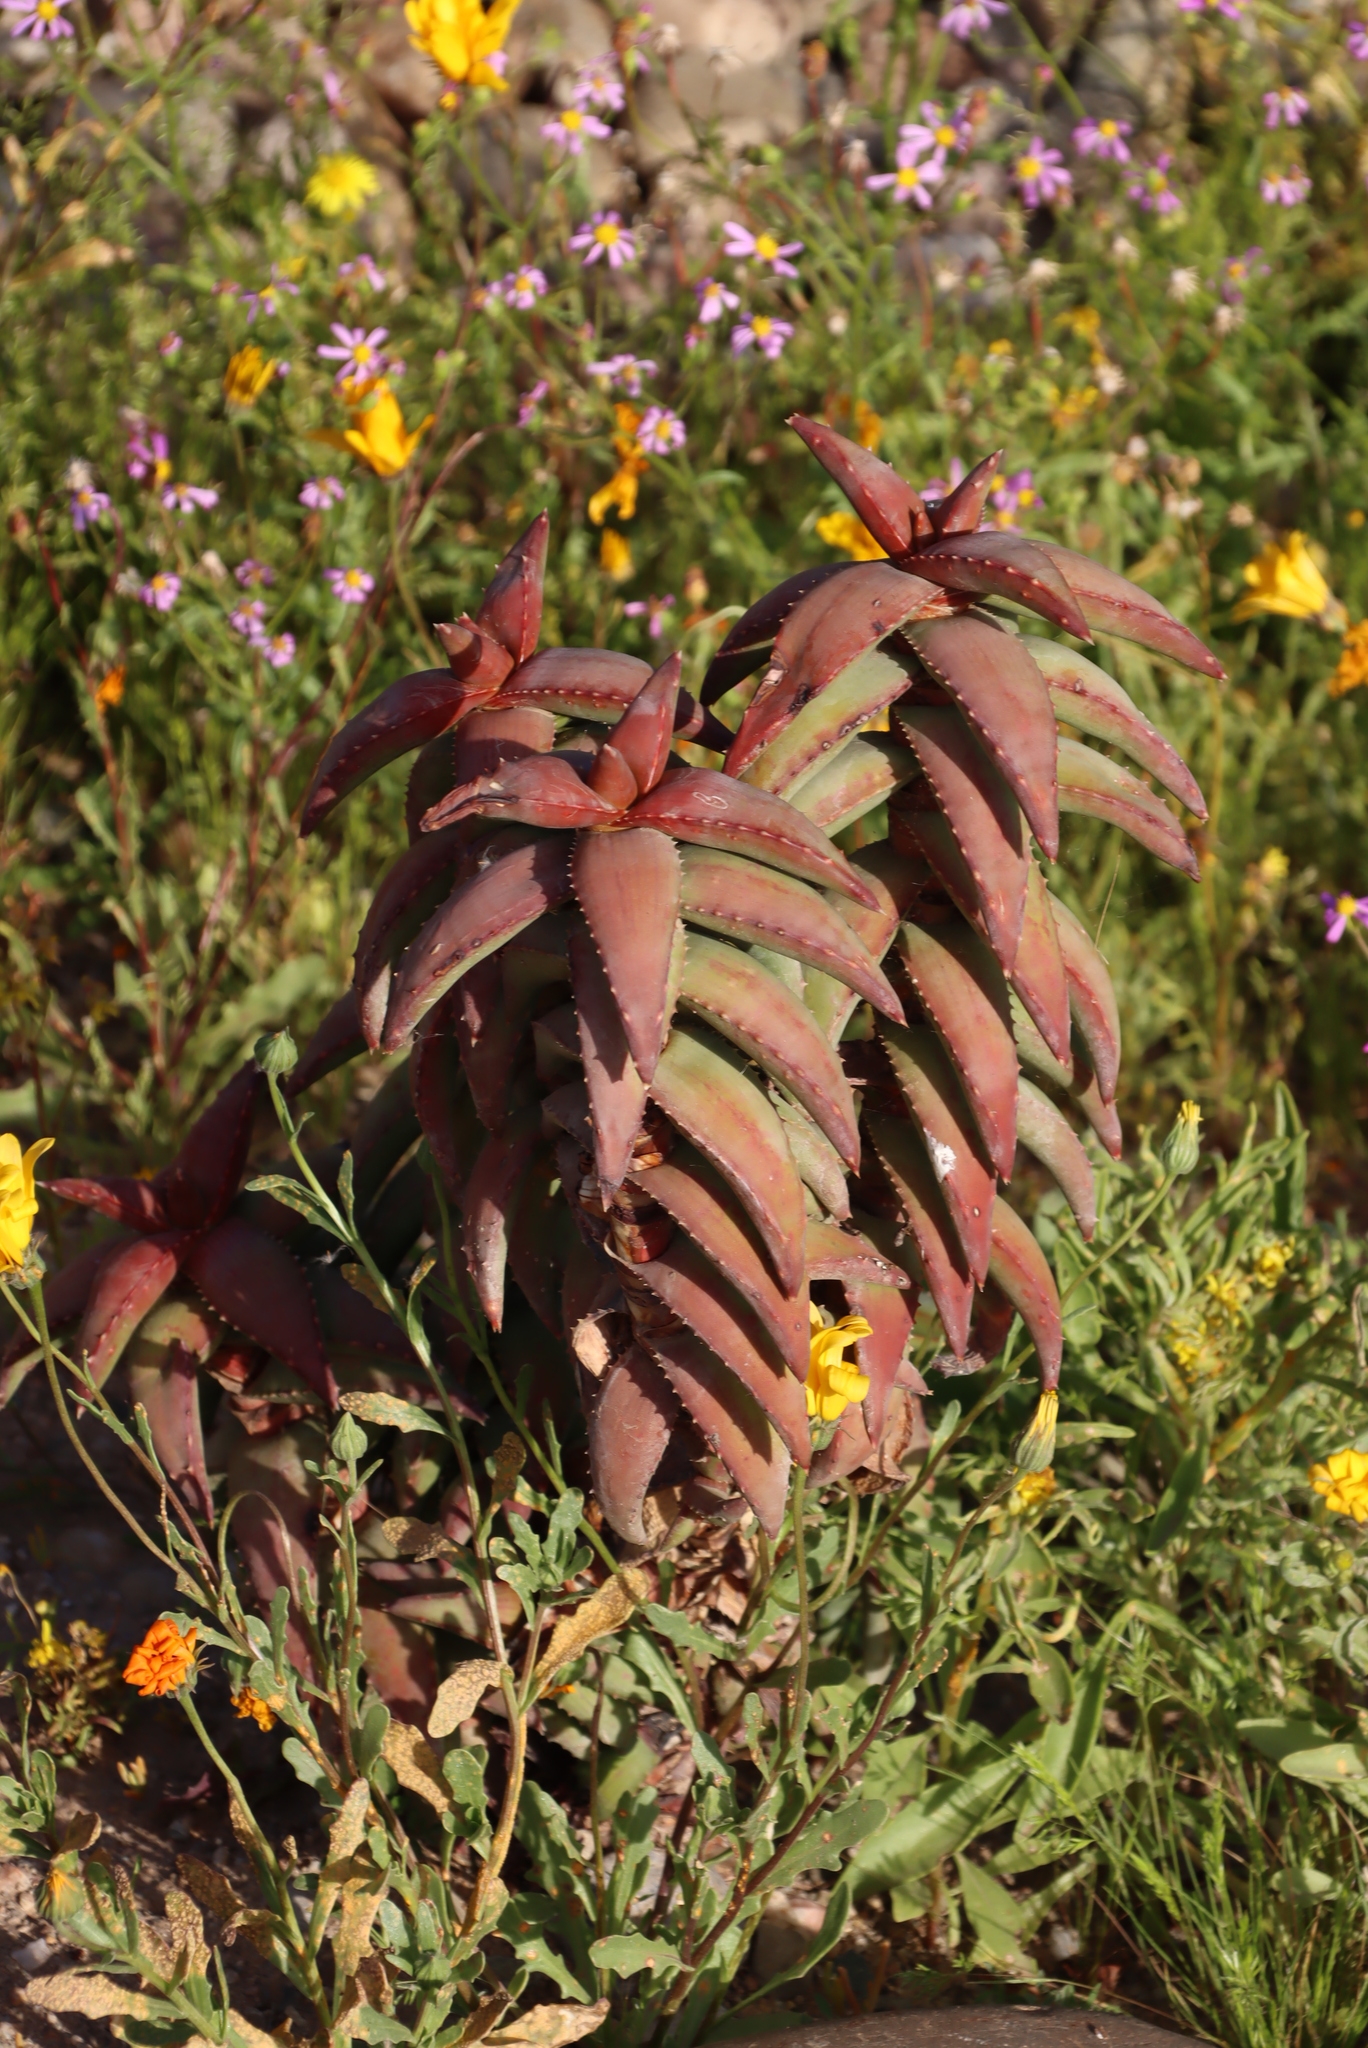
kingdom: Plantae
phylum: Tracheophyta
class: Liliopsida
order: Asparagales
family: Asphodelaceae
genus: Aloe
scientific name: Aloe pearsonii
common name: Pearson's aloe
